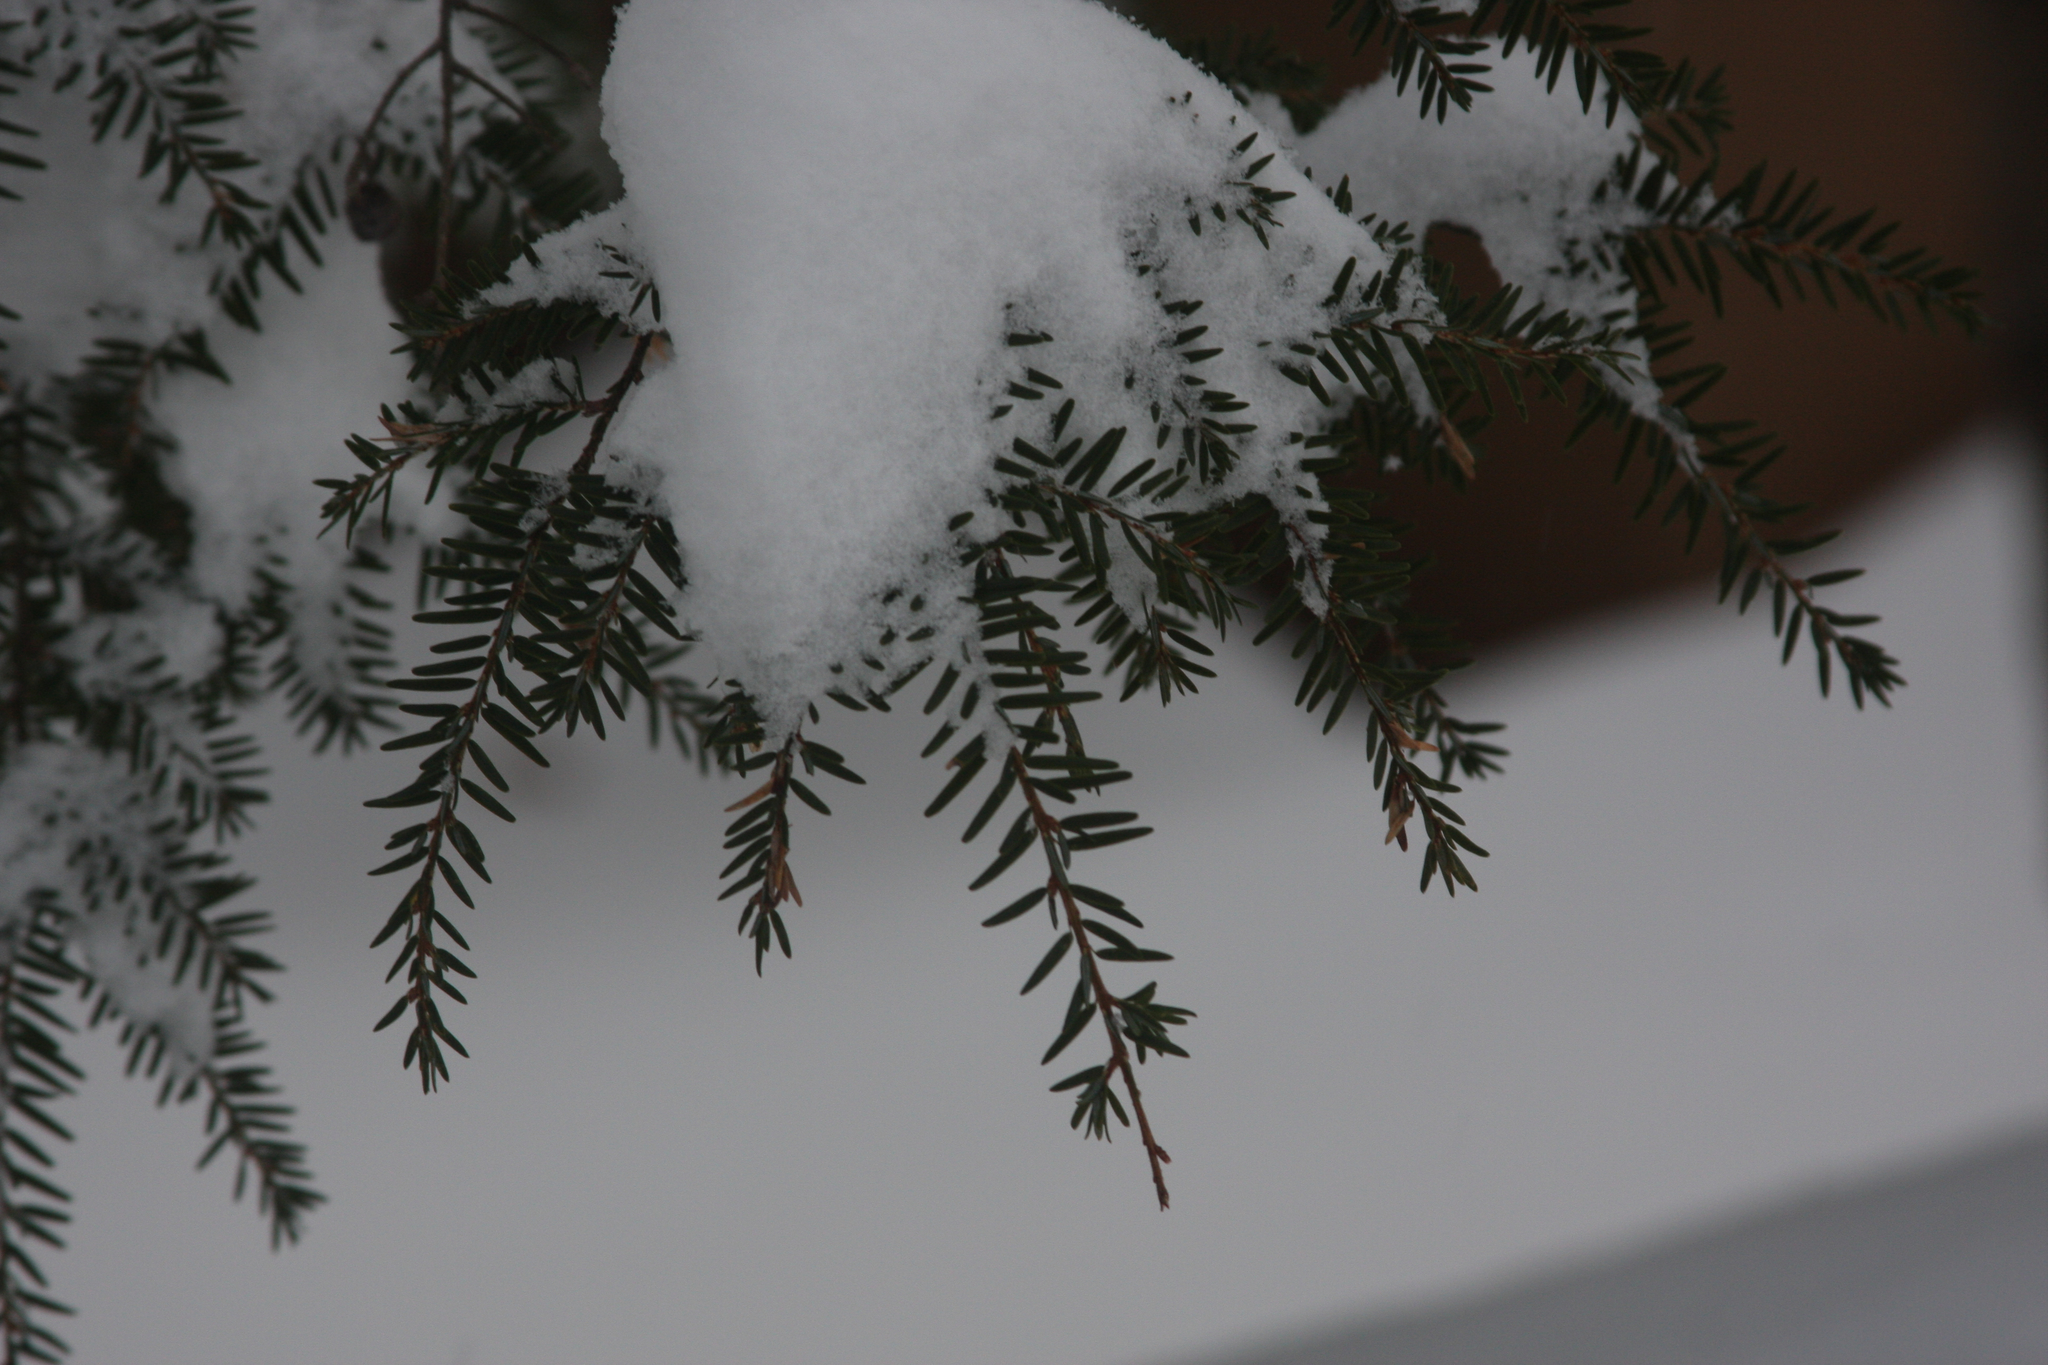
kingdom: Plantae
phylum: Tracheophyta
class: Pinopsida
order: Pinales
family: Pinaceae
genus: Tsuga
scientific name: Tsuga canadensis
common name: Eastern hemlock
